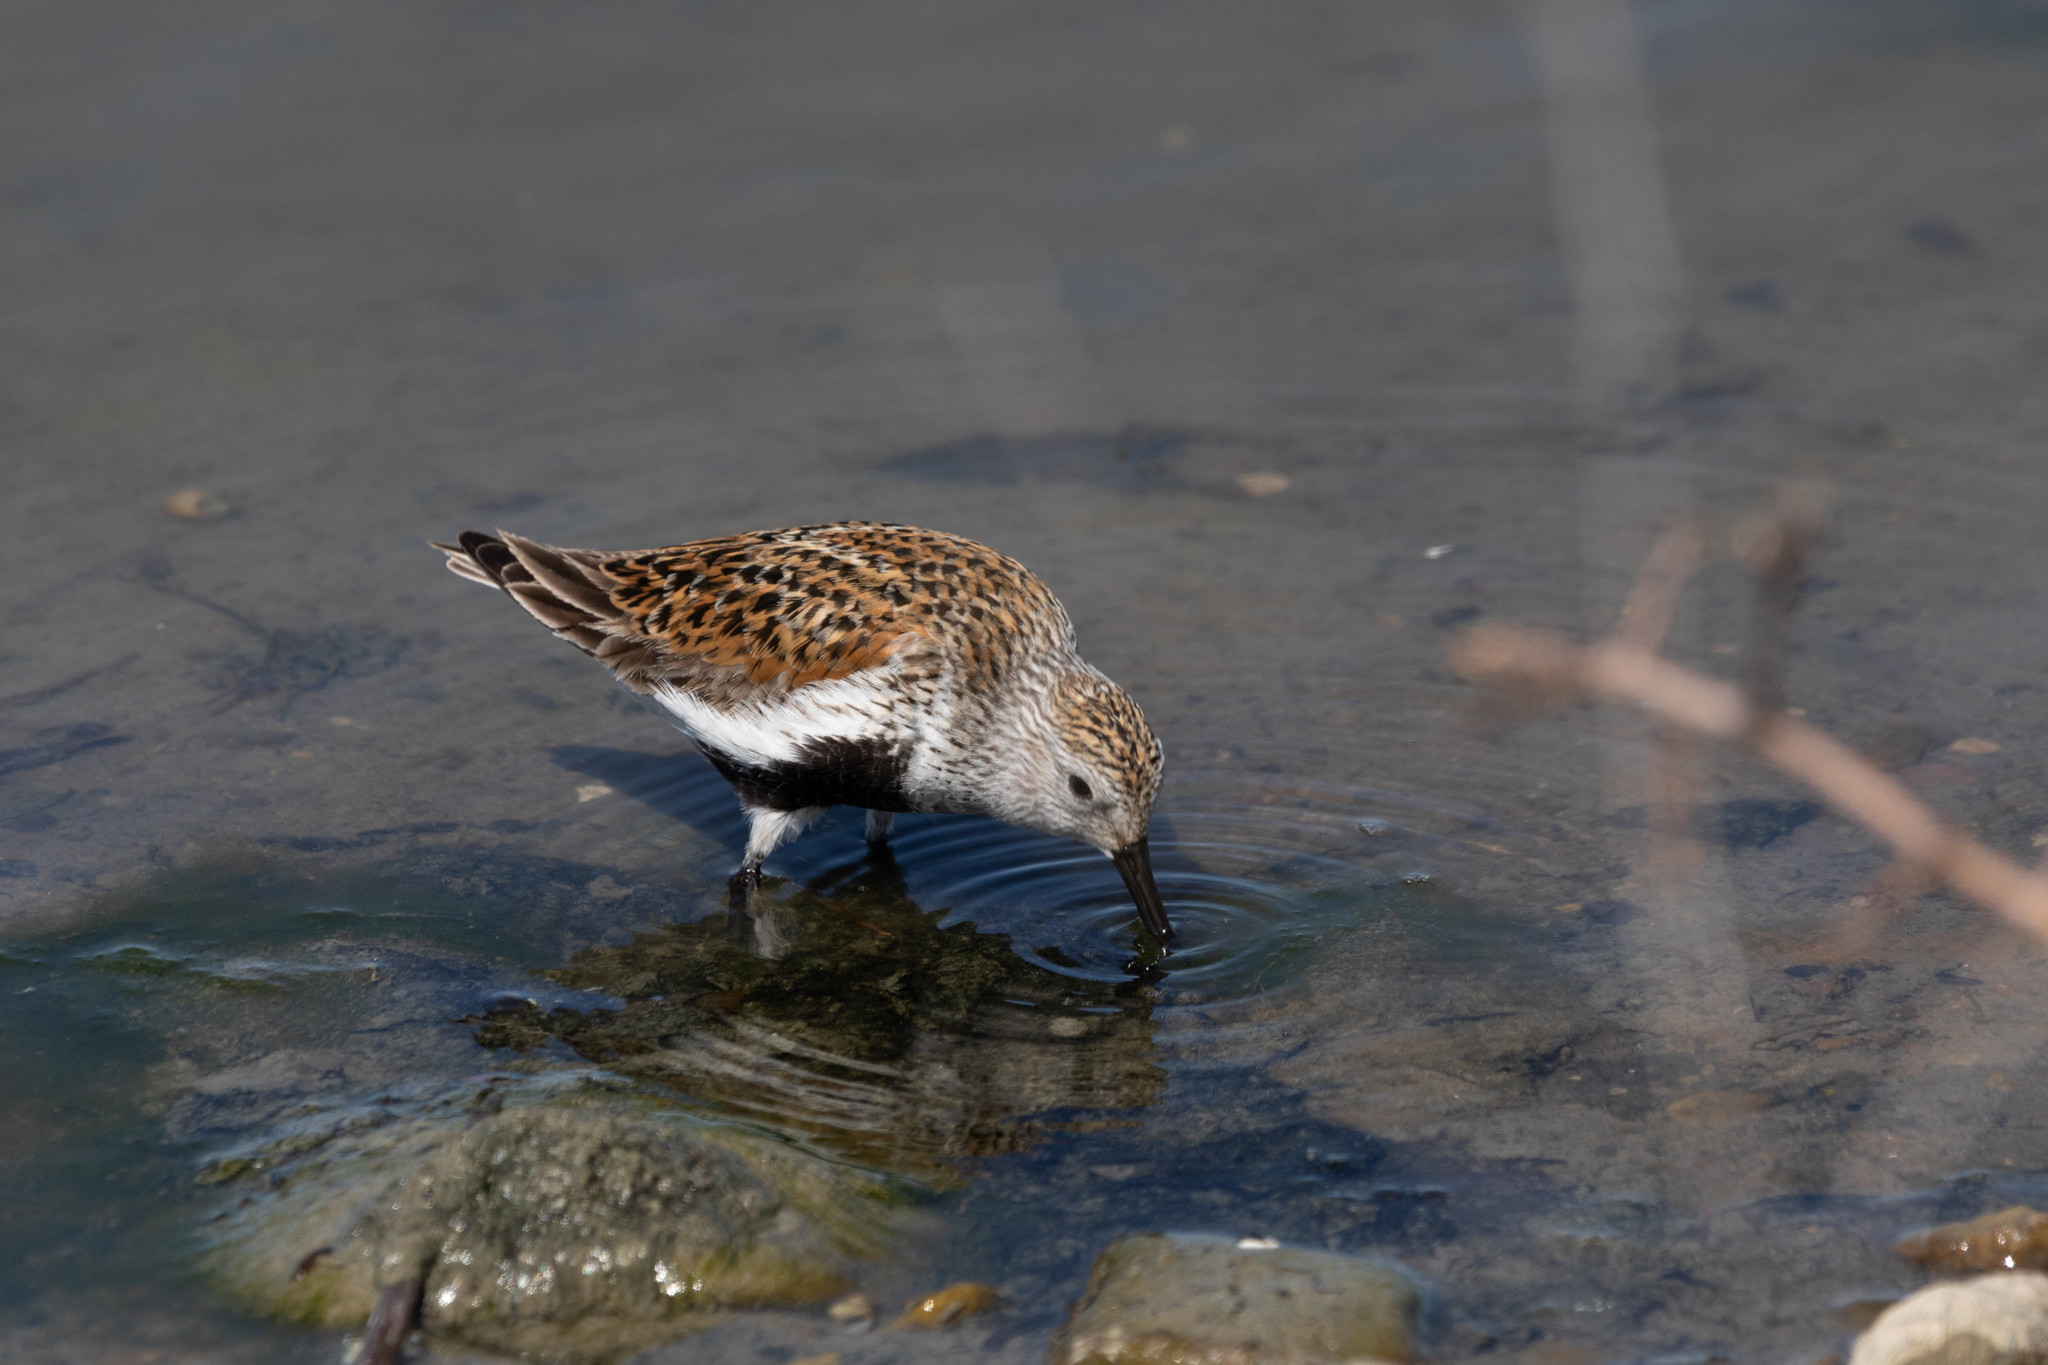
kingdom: Animalia
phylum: Chordata
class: Aves
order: Charadriiformes
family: Scolopacidae
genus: Calidris
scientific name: Calidris alpina
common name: Dunlin
